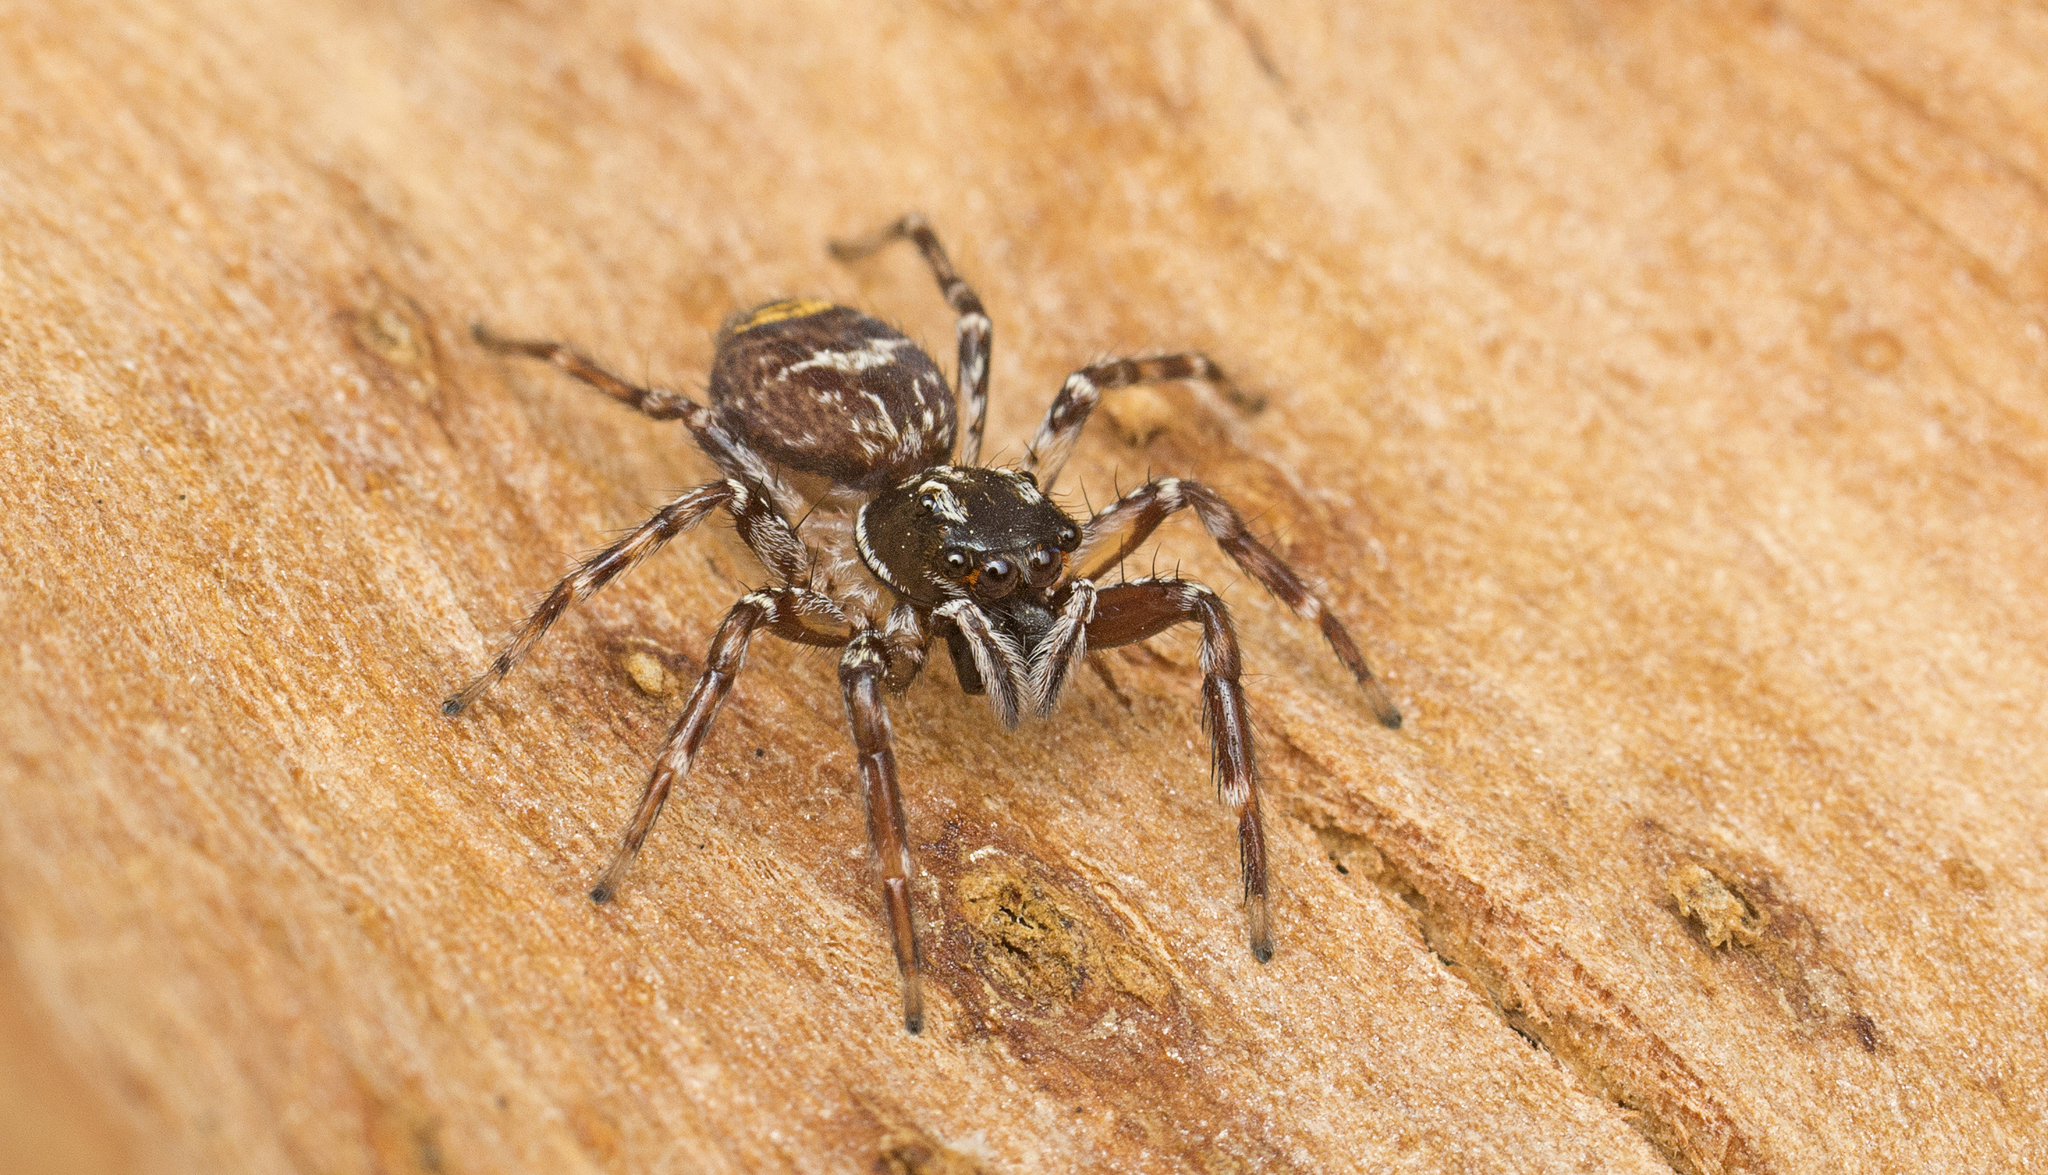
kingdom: Animalia
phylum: Arthropoda
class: Arachnida
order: Araneae
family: Salticidae
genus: Astia
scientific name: Astia
